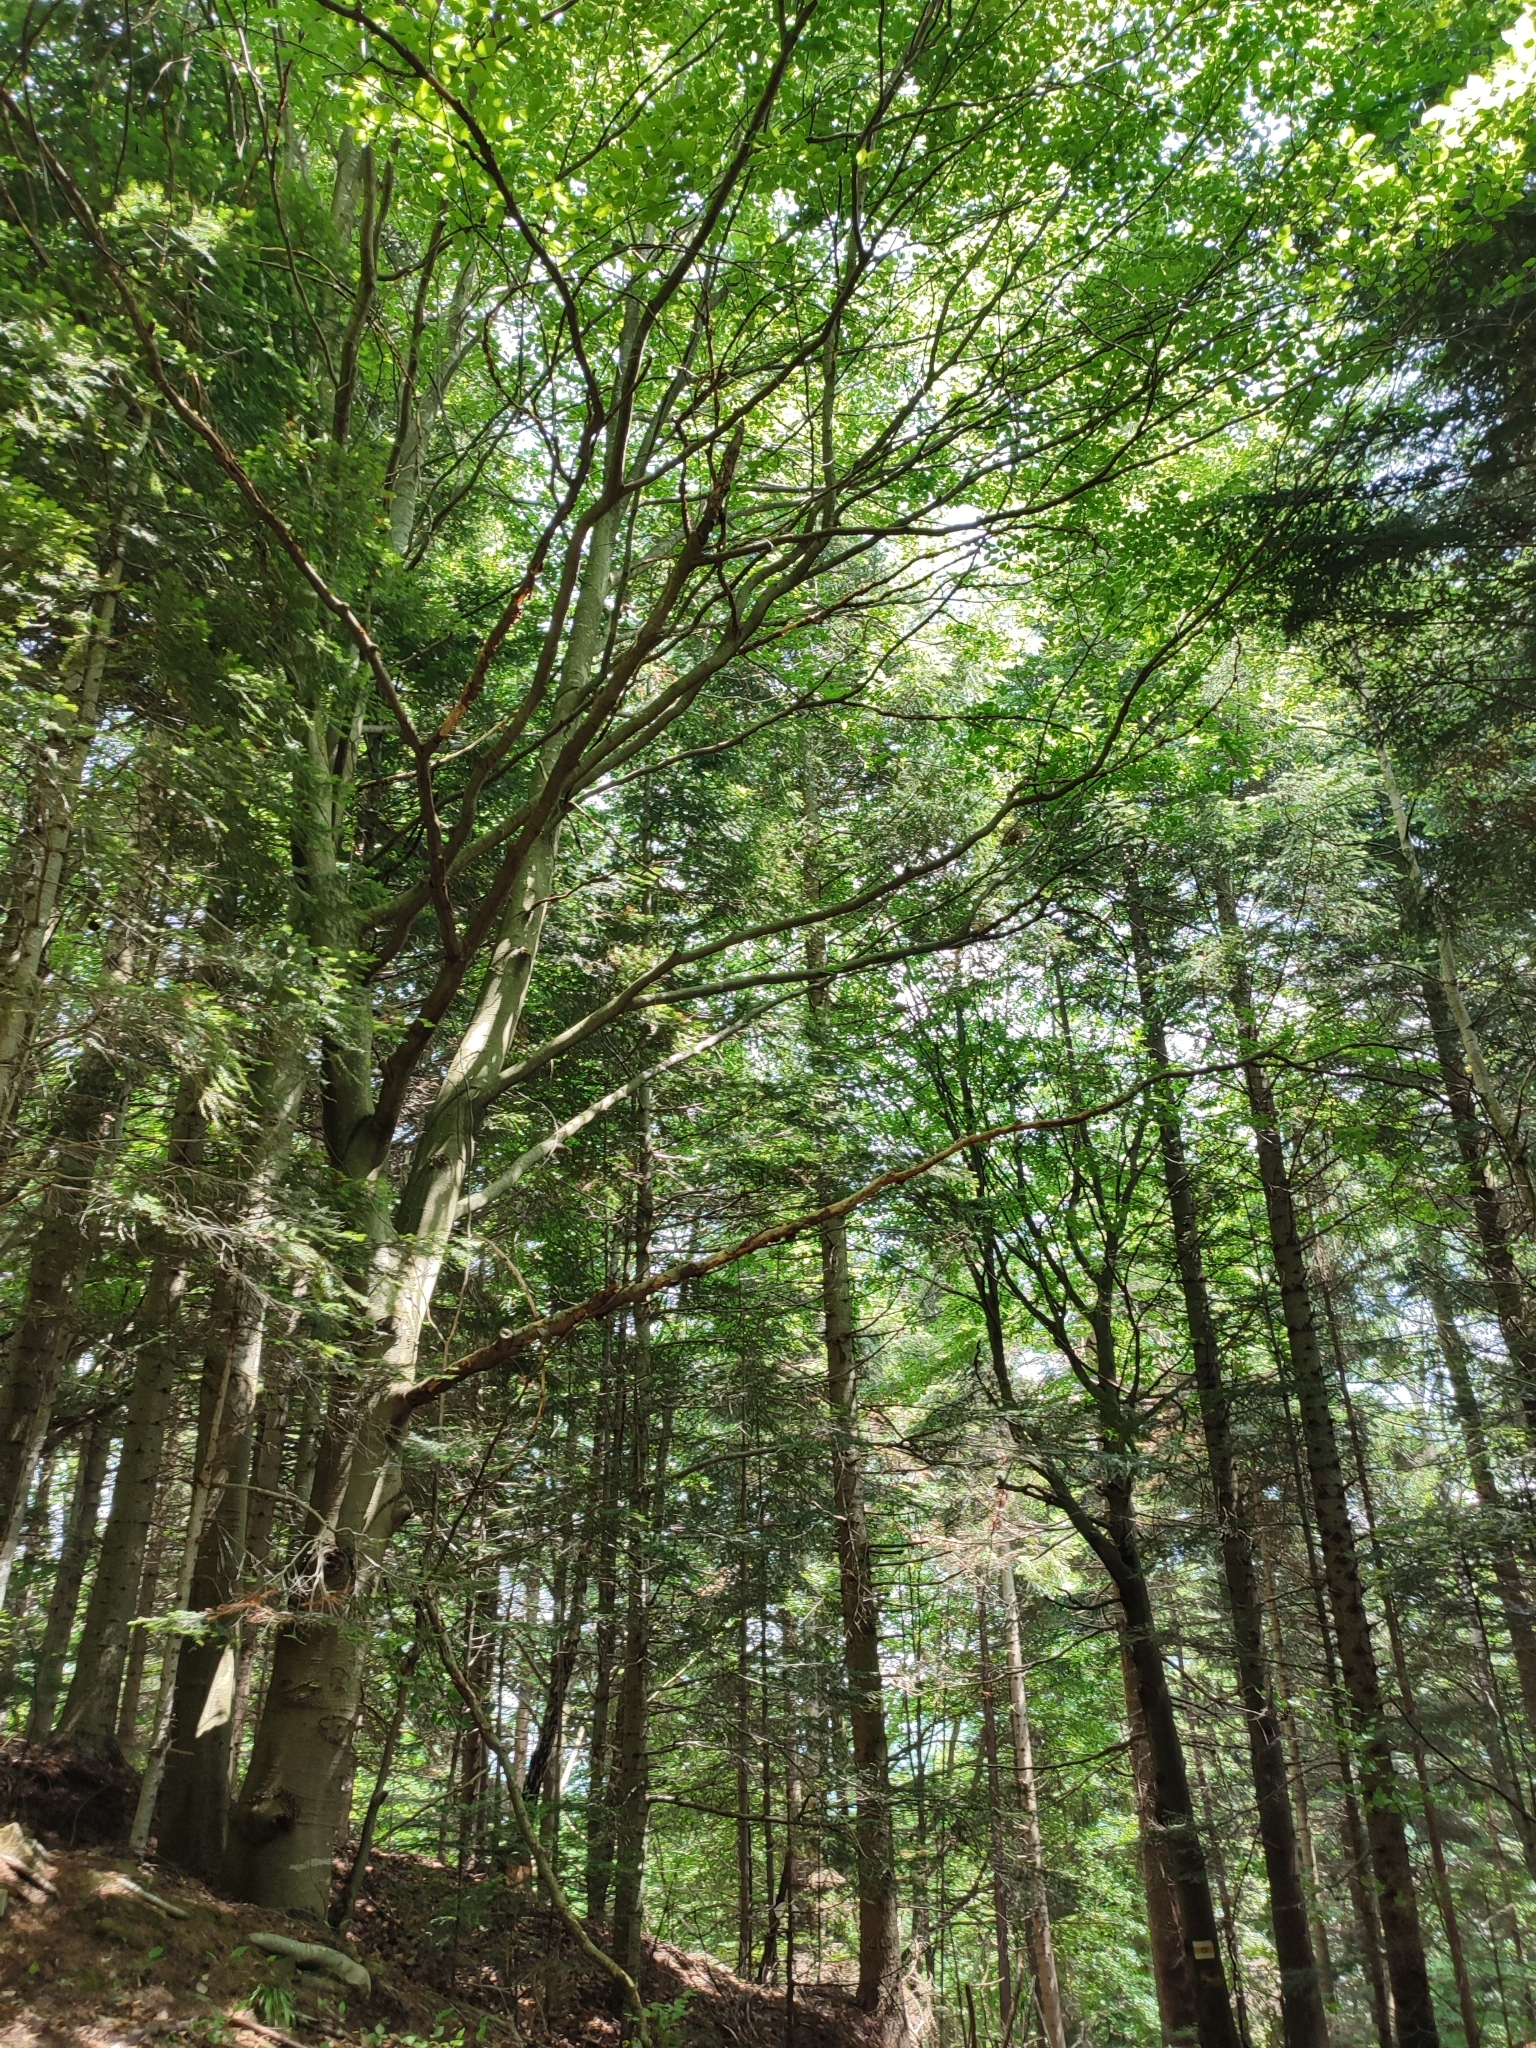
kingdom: Plantae
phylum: Tracheophyta
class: Magnoliopsida
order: Fagales
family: Fagaceae
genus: Fagus
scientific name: Fagus sylvatica
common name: Beech
